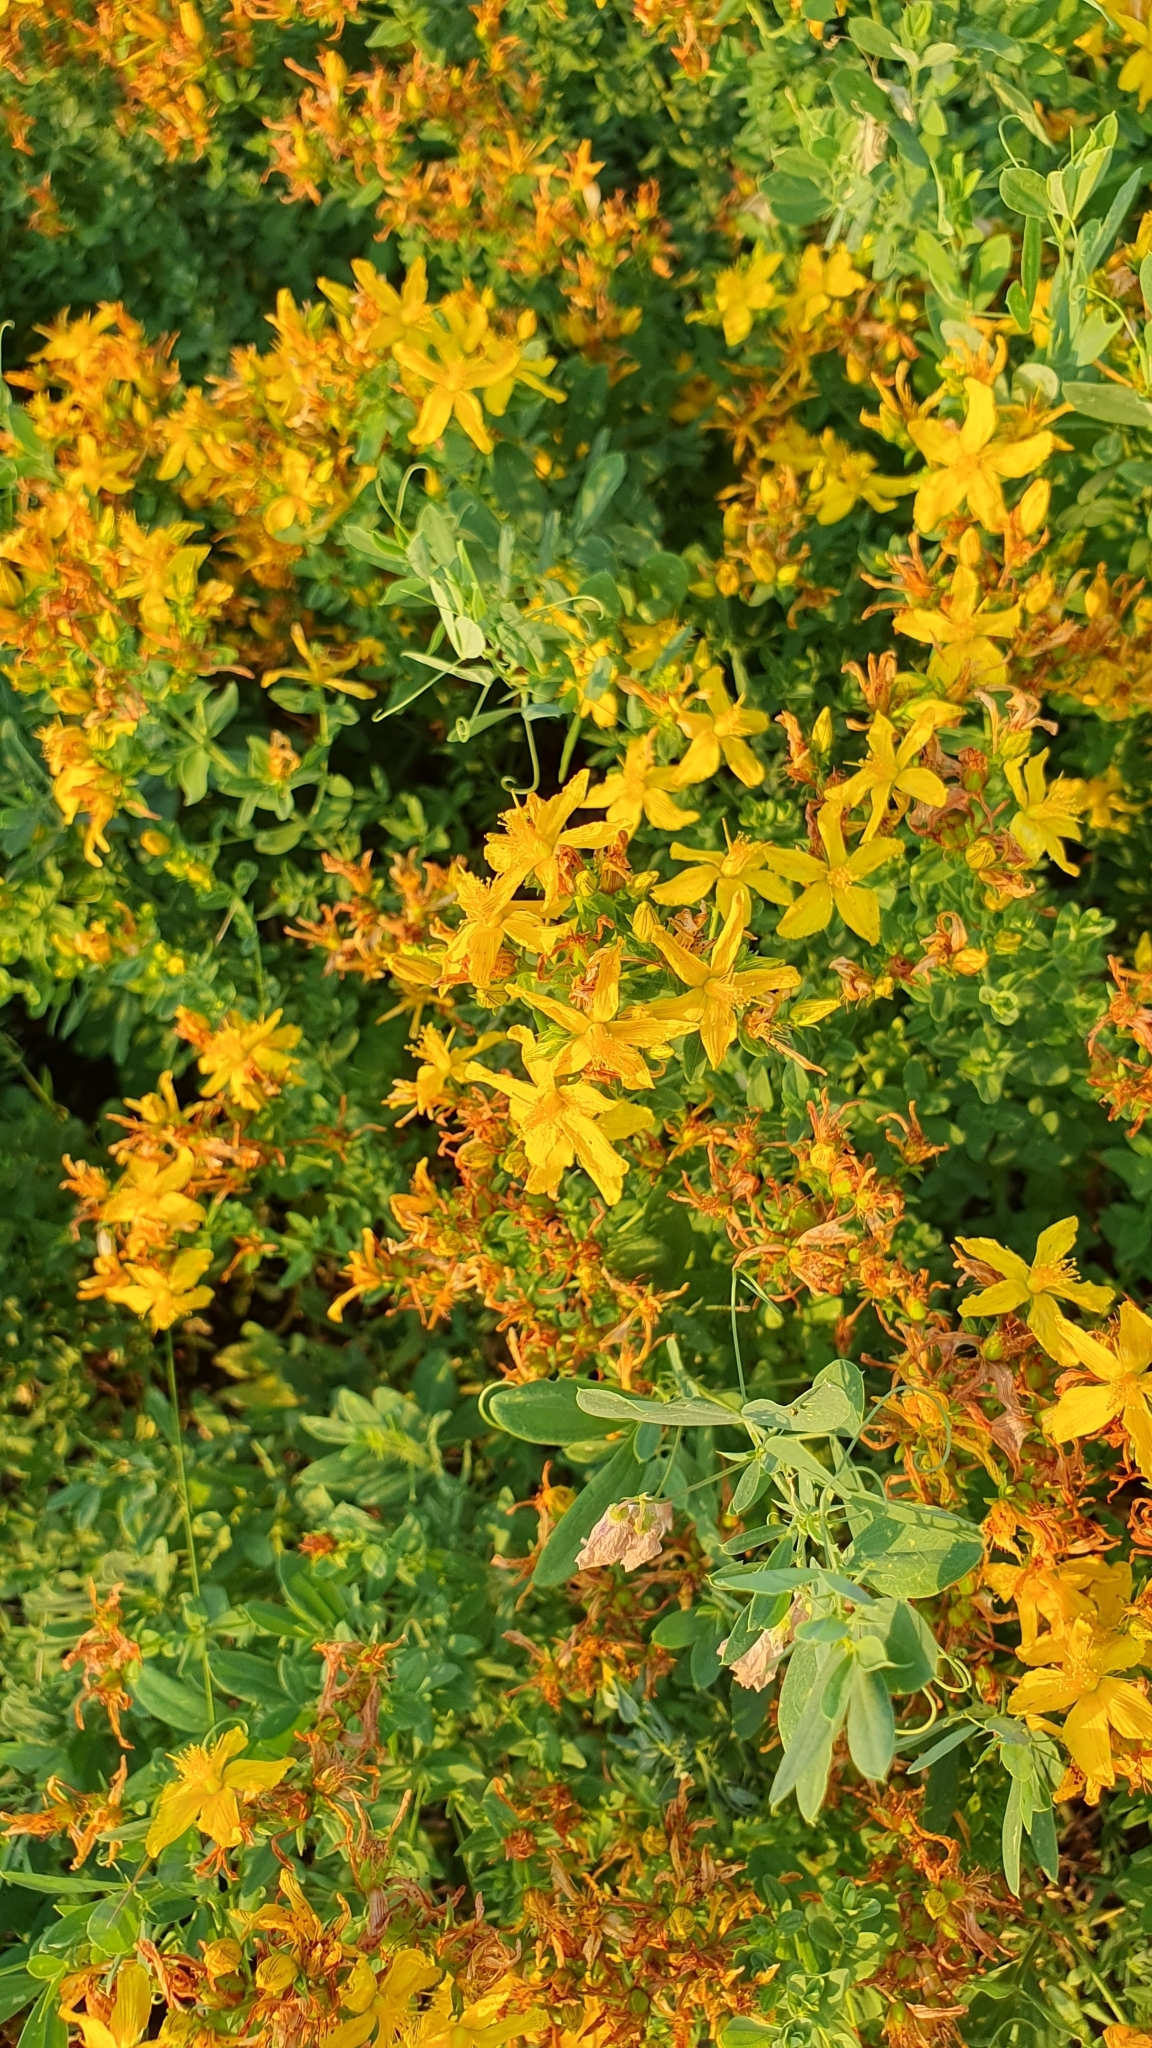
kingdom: Plantae
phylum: Tracheophyta
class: Magnoliopsida
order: Malpighiales
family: Hypericaceae
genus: Hypericum
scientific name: Hypericum perforatum
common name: Common st. johnswort
